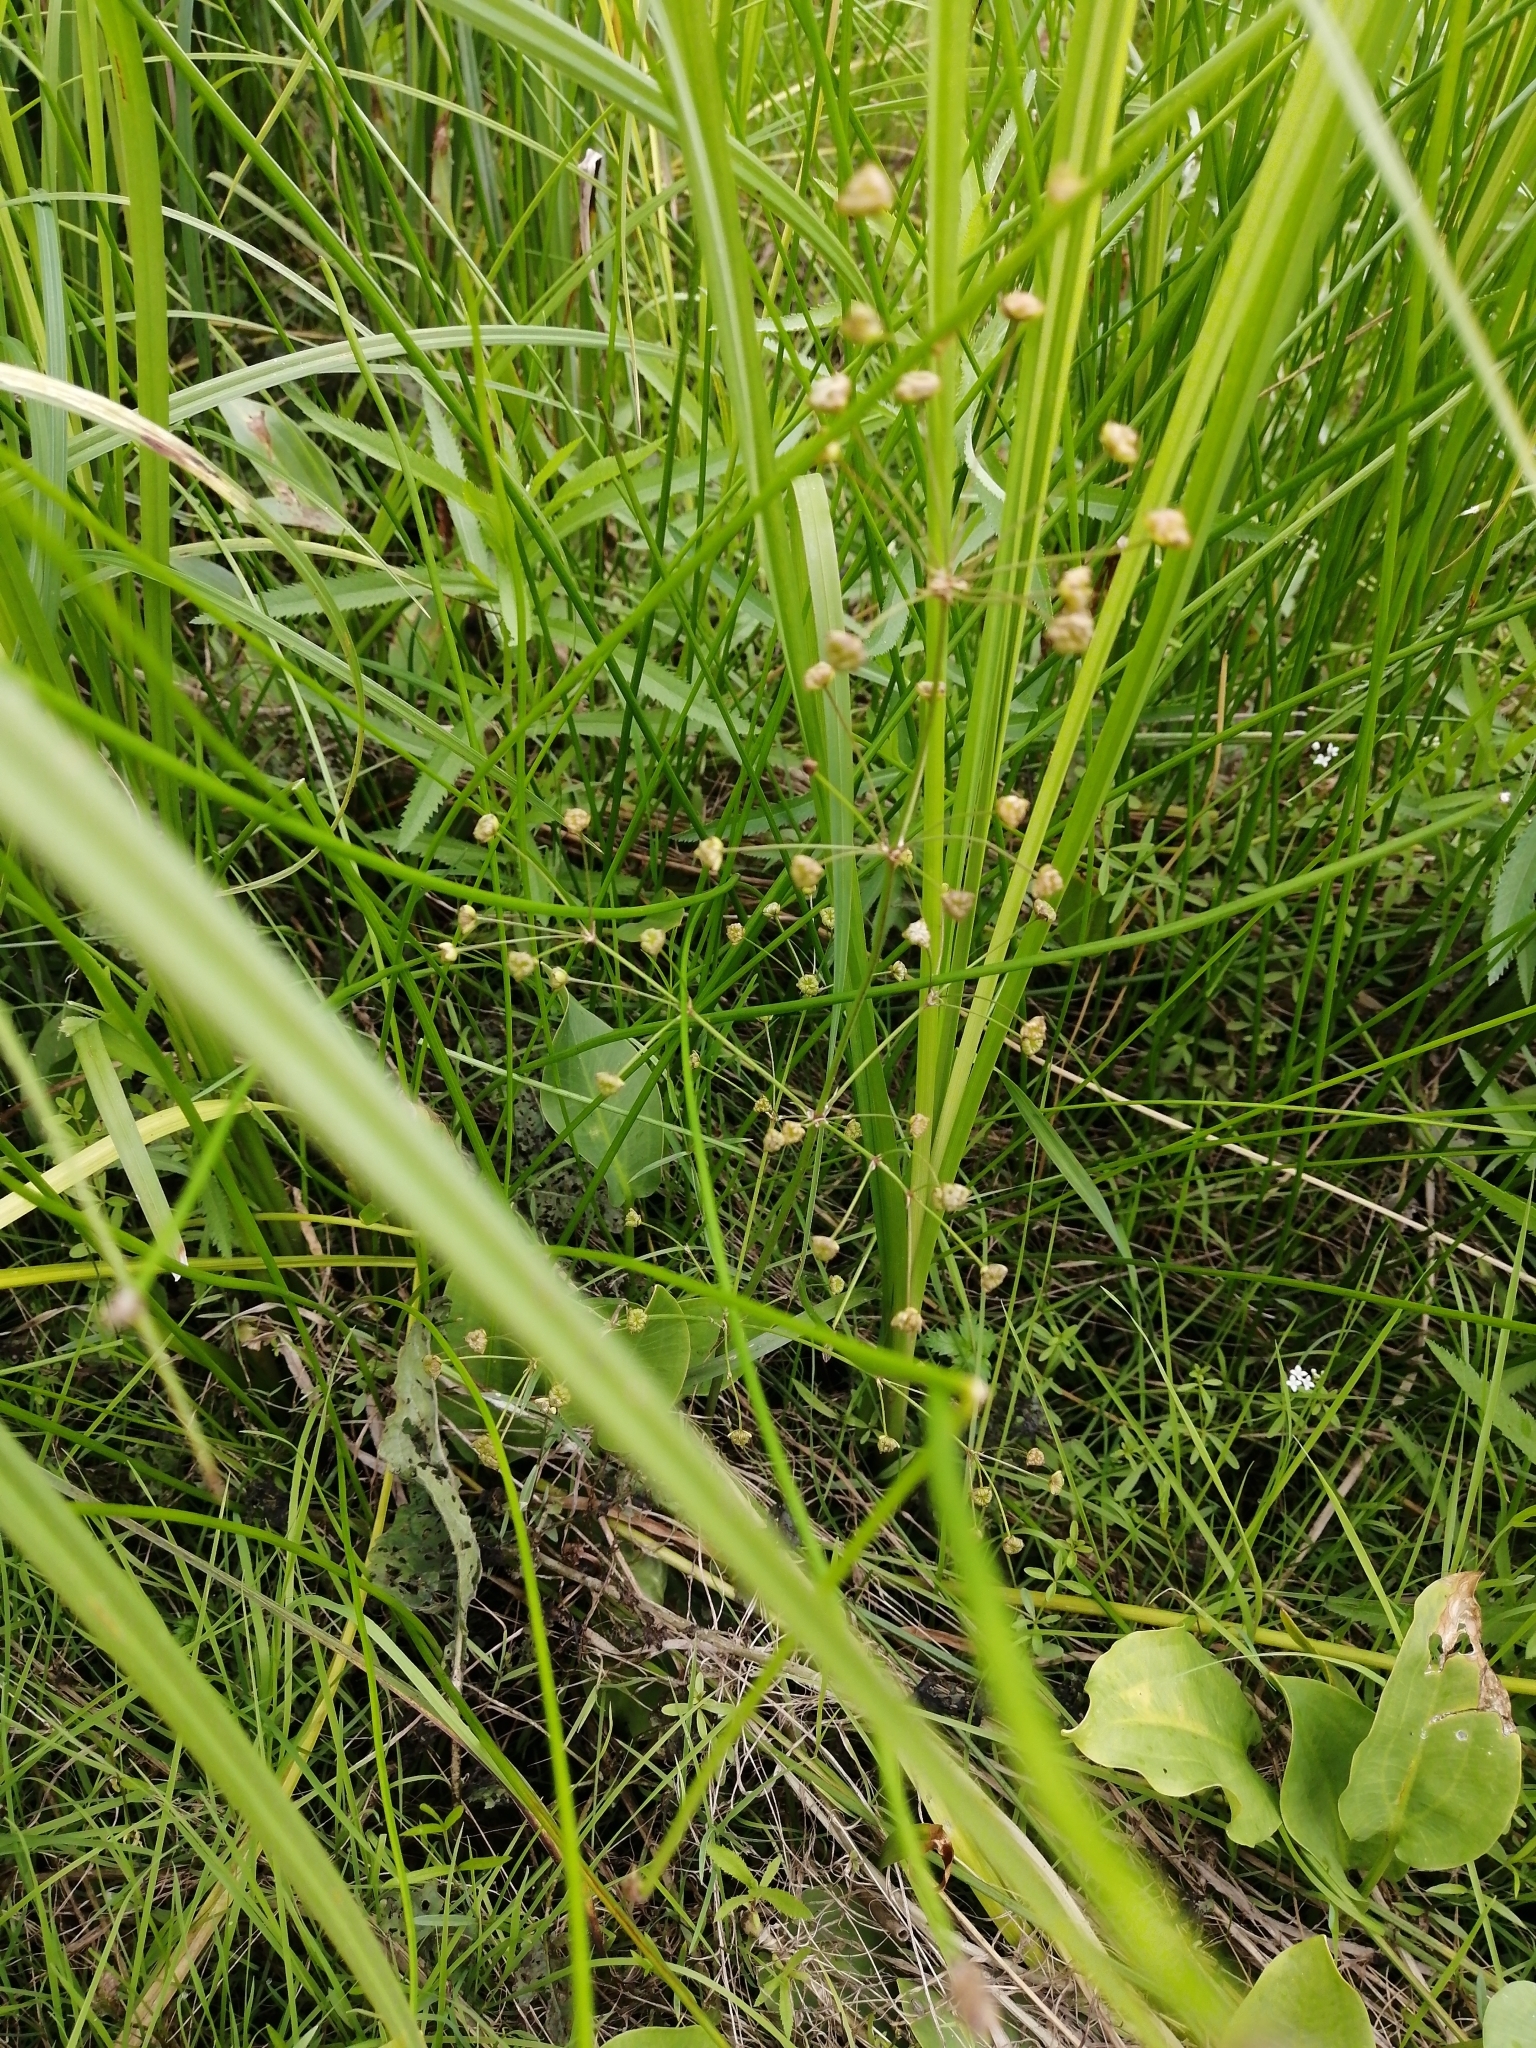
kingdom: Plantae
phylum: Tracheophyta
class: Liliopsida
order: Alismatales
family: Alismataceae
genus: Alisma
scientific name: Alisma plantago-aquatica
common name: Water-plantain
